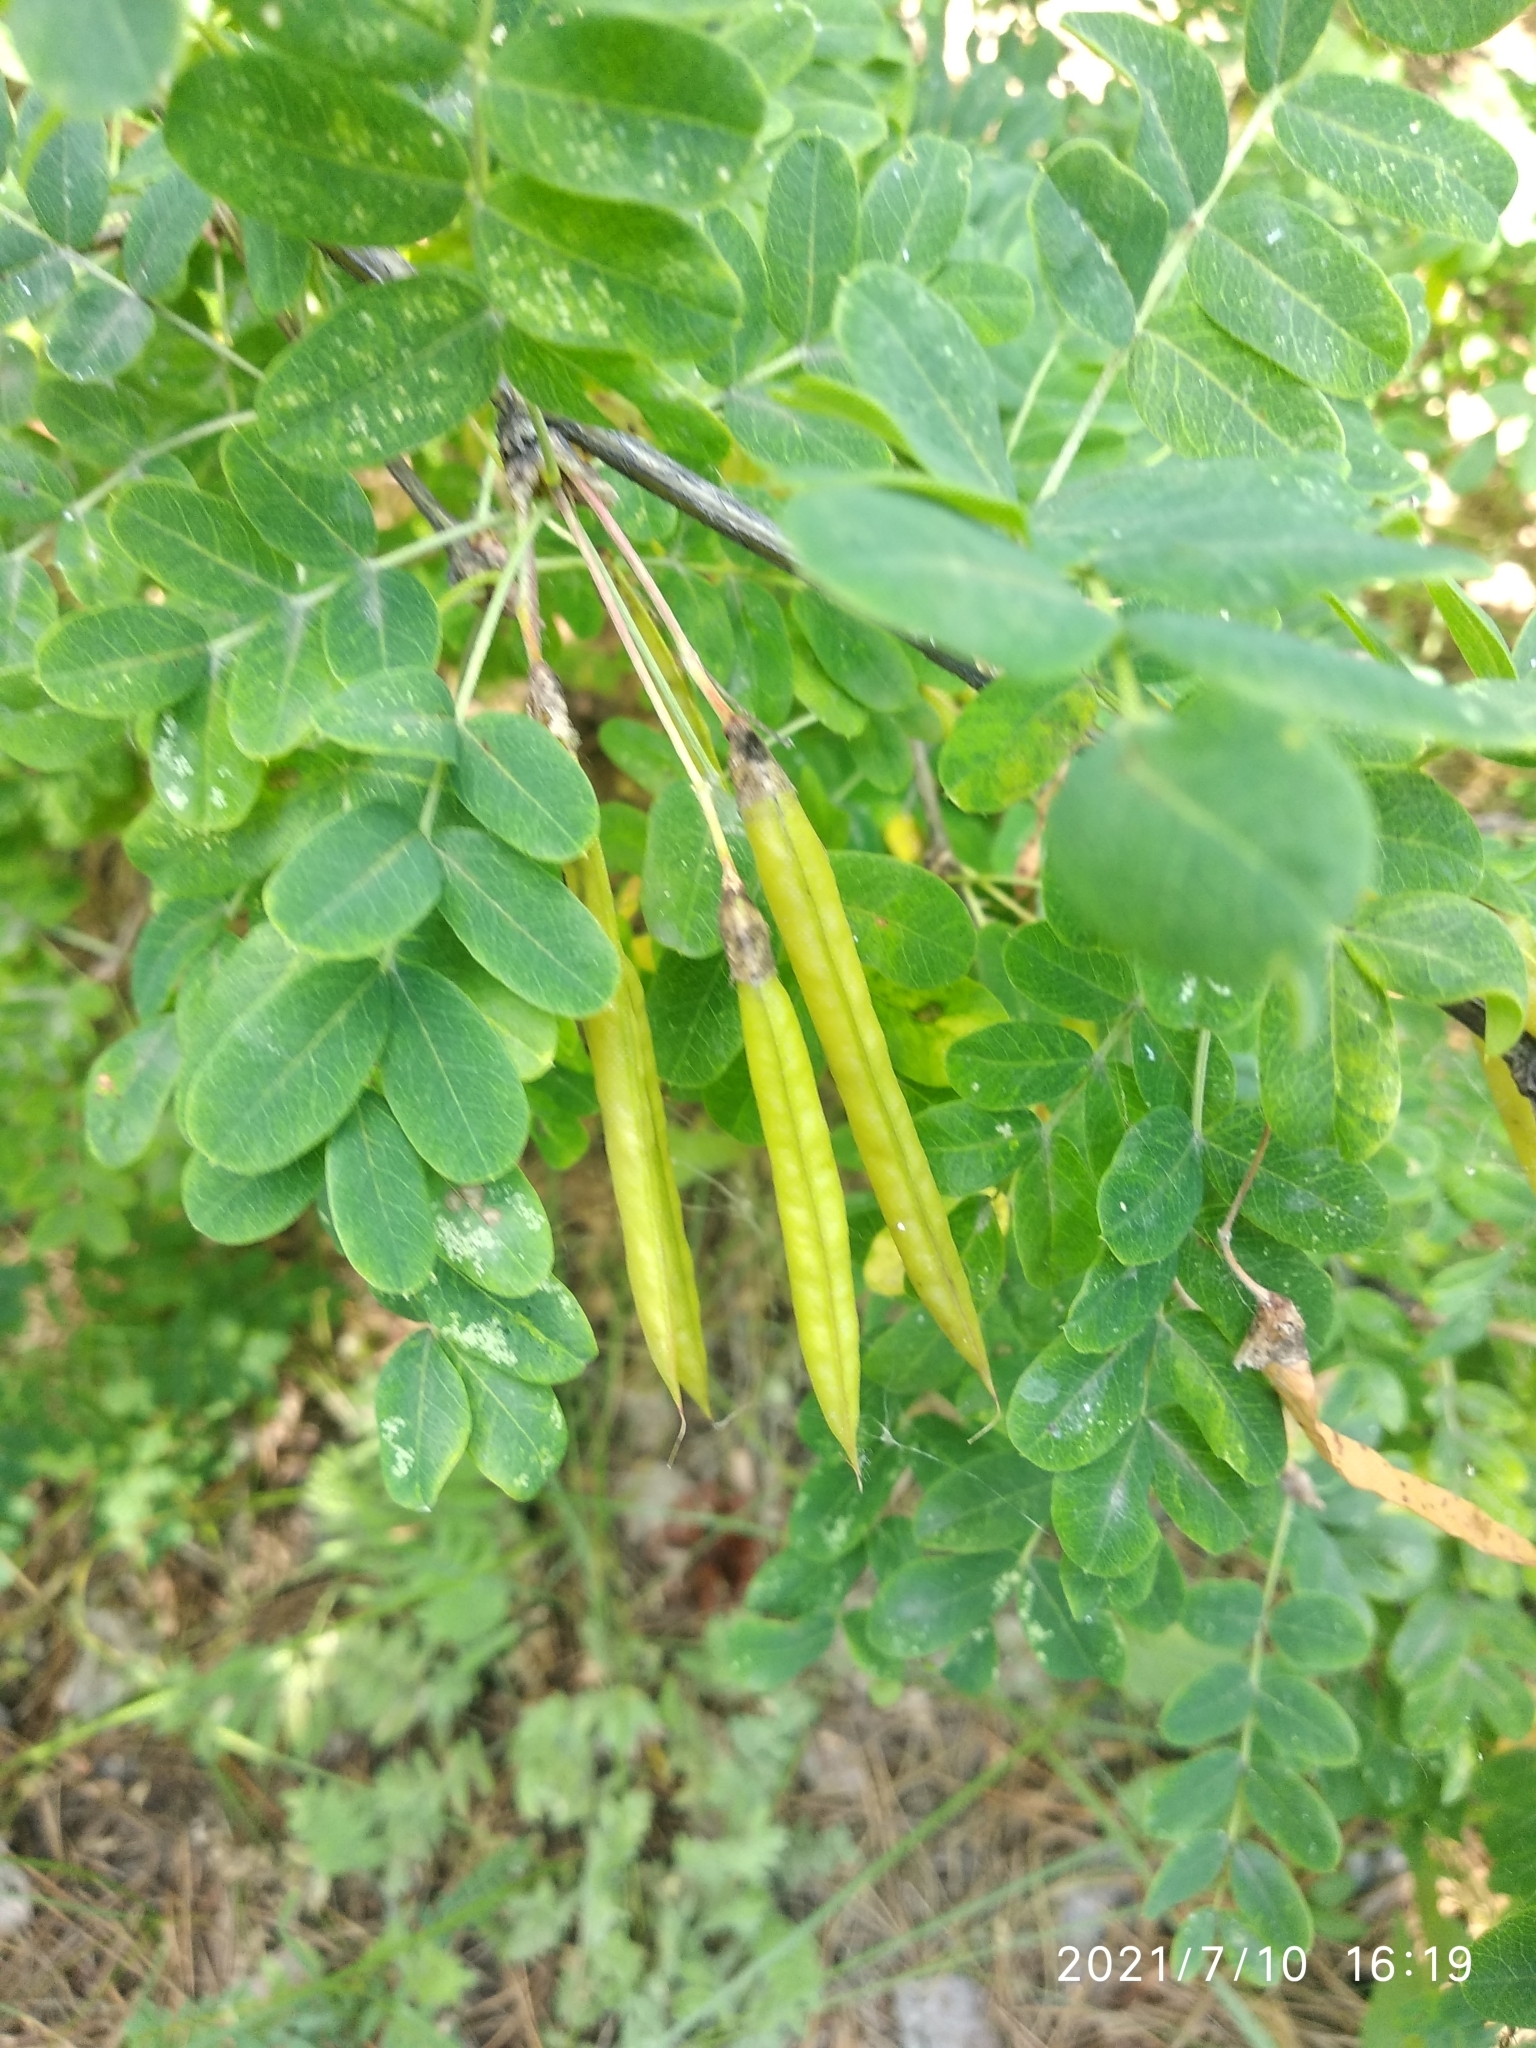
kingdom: Plantae
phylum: Tracheophyta
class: Magnoliopsida
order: Fabales
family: Fabaceae
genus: Caragana
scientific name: Caragana arborescens
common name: Siberian peashrub
